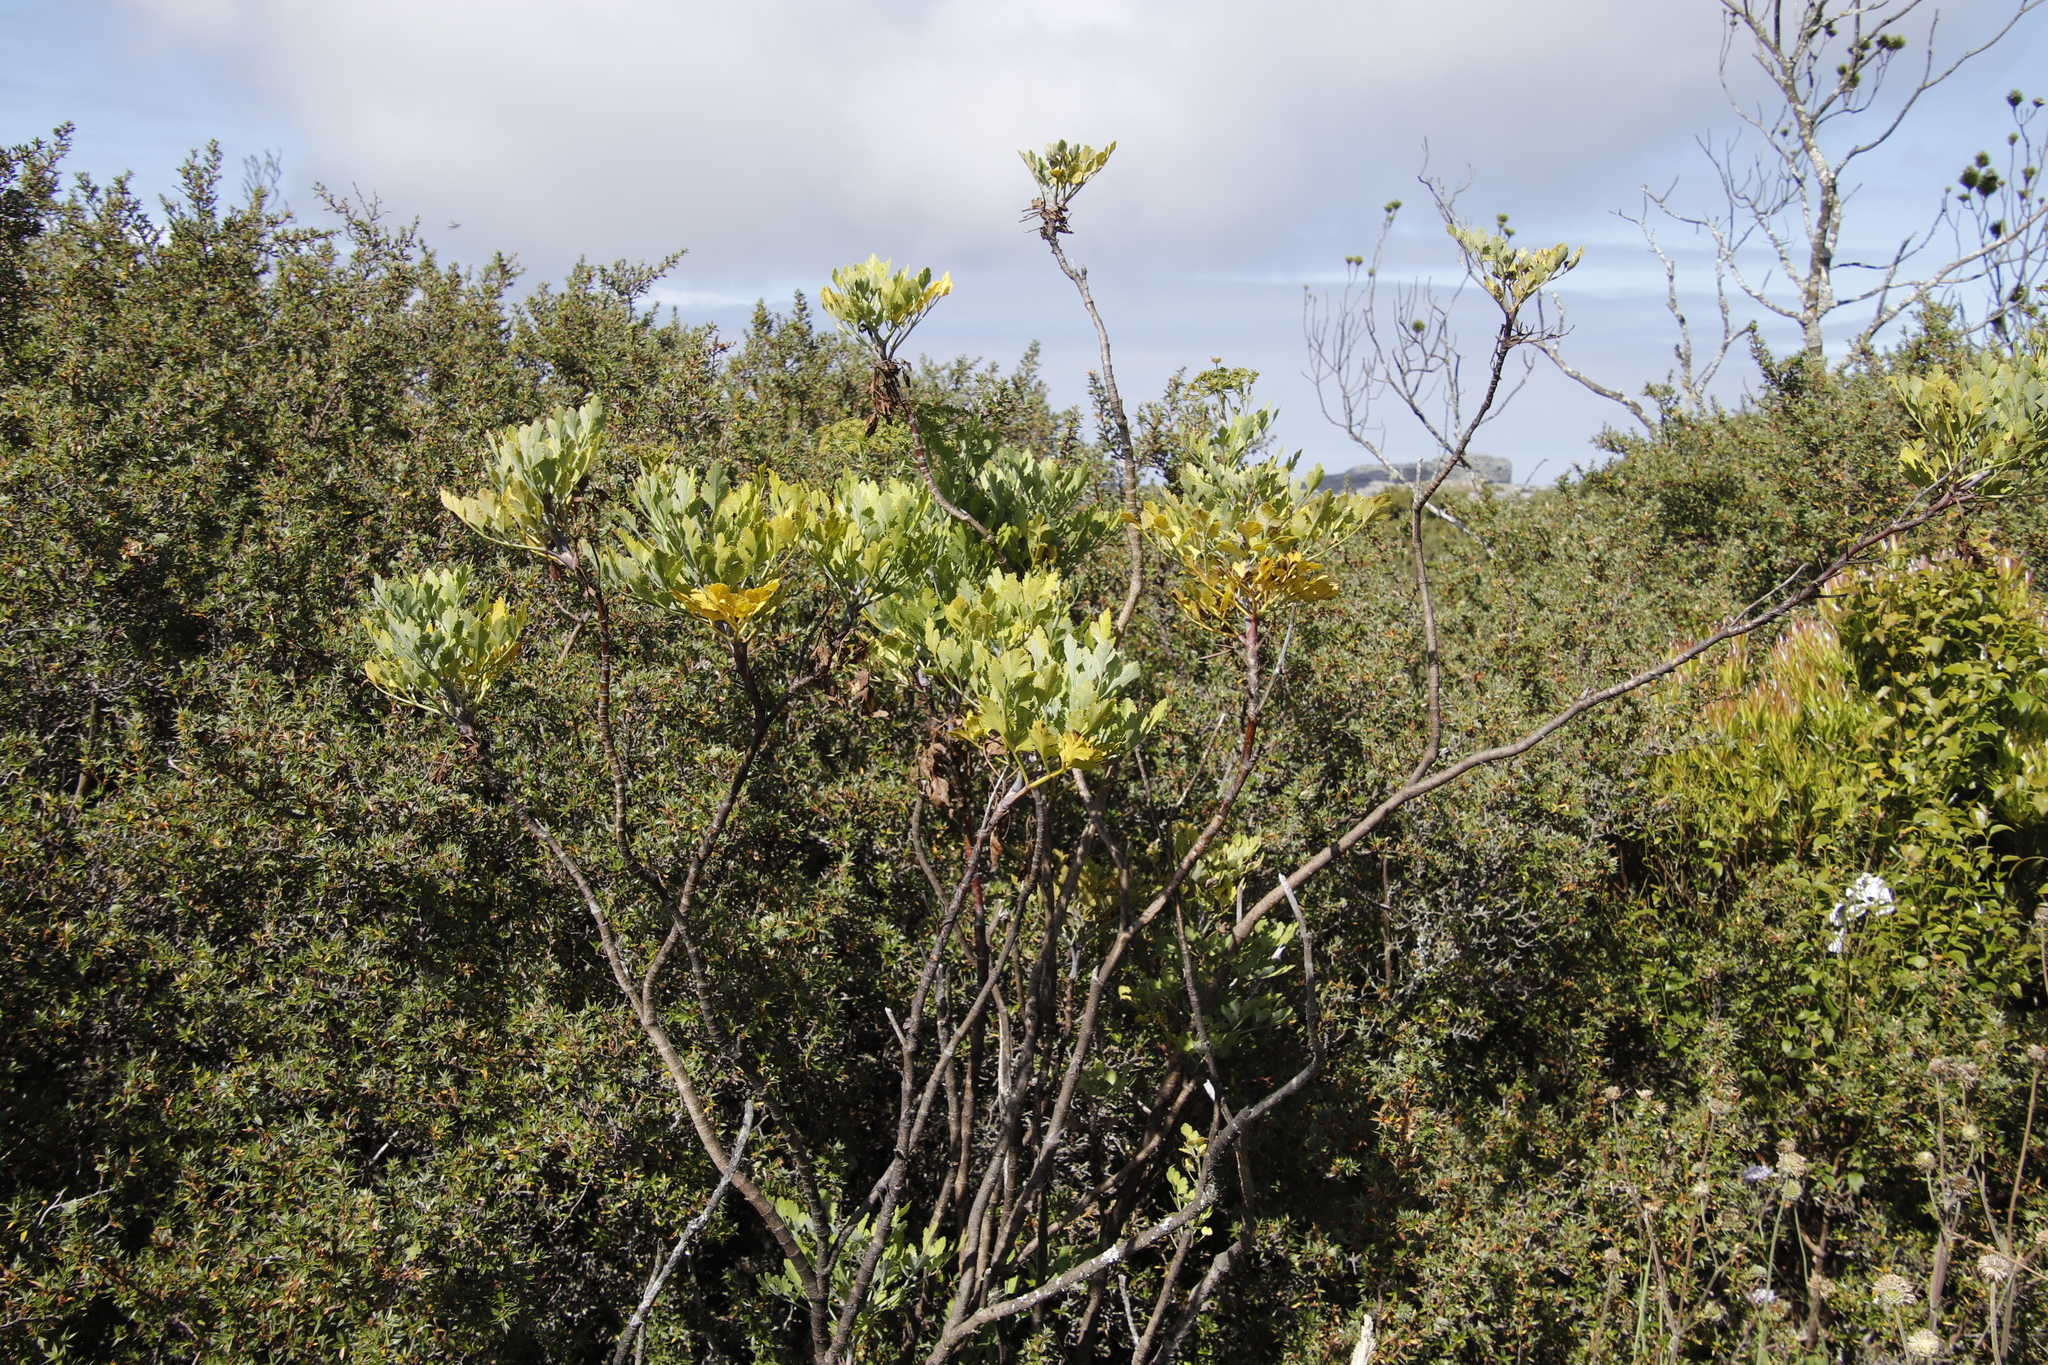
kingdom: Plantae
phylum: Tracheophyta
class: Magnoliopsida
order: Apiales
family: Apiaceae
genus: Notobubon
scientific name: Notobubon galbanum
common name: Blisterbush
